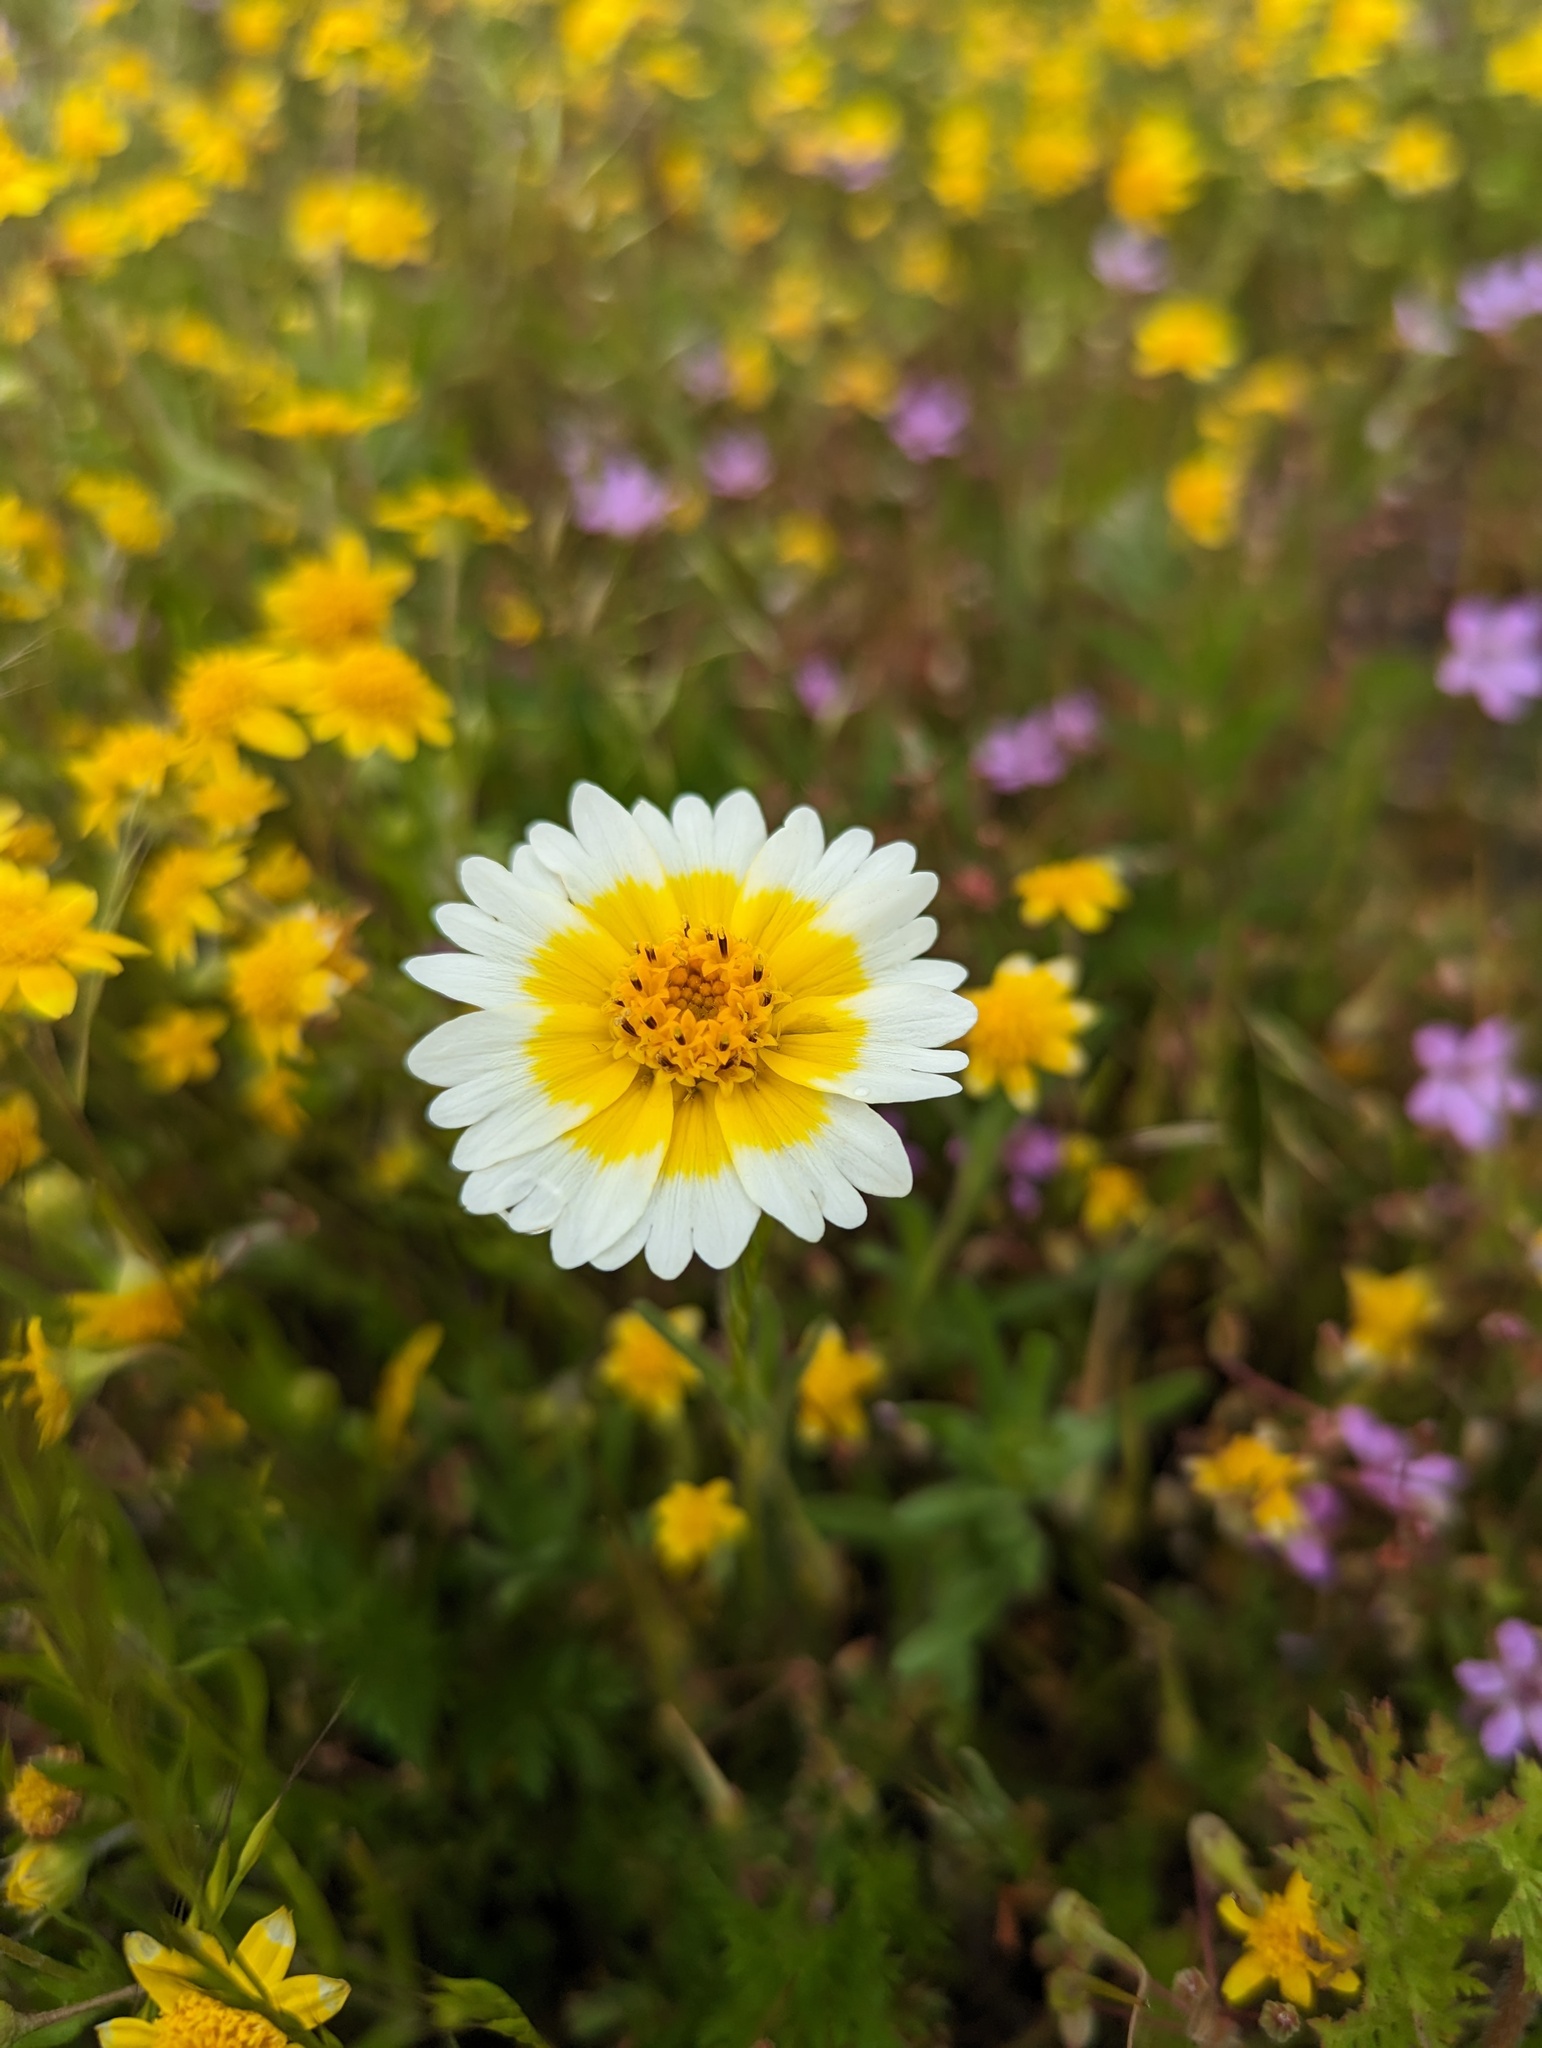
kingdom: Plantae
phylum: Tracheophyta
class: Magnoliopsida
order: Asterales
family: Asteraceae
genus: Layia
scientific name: Layia platyglossa
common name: Tidy-tips
